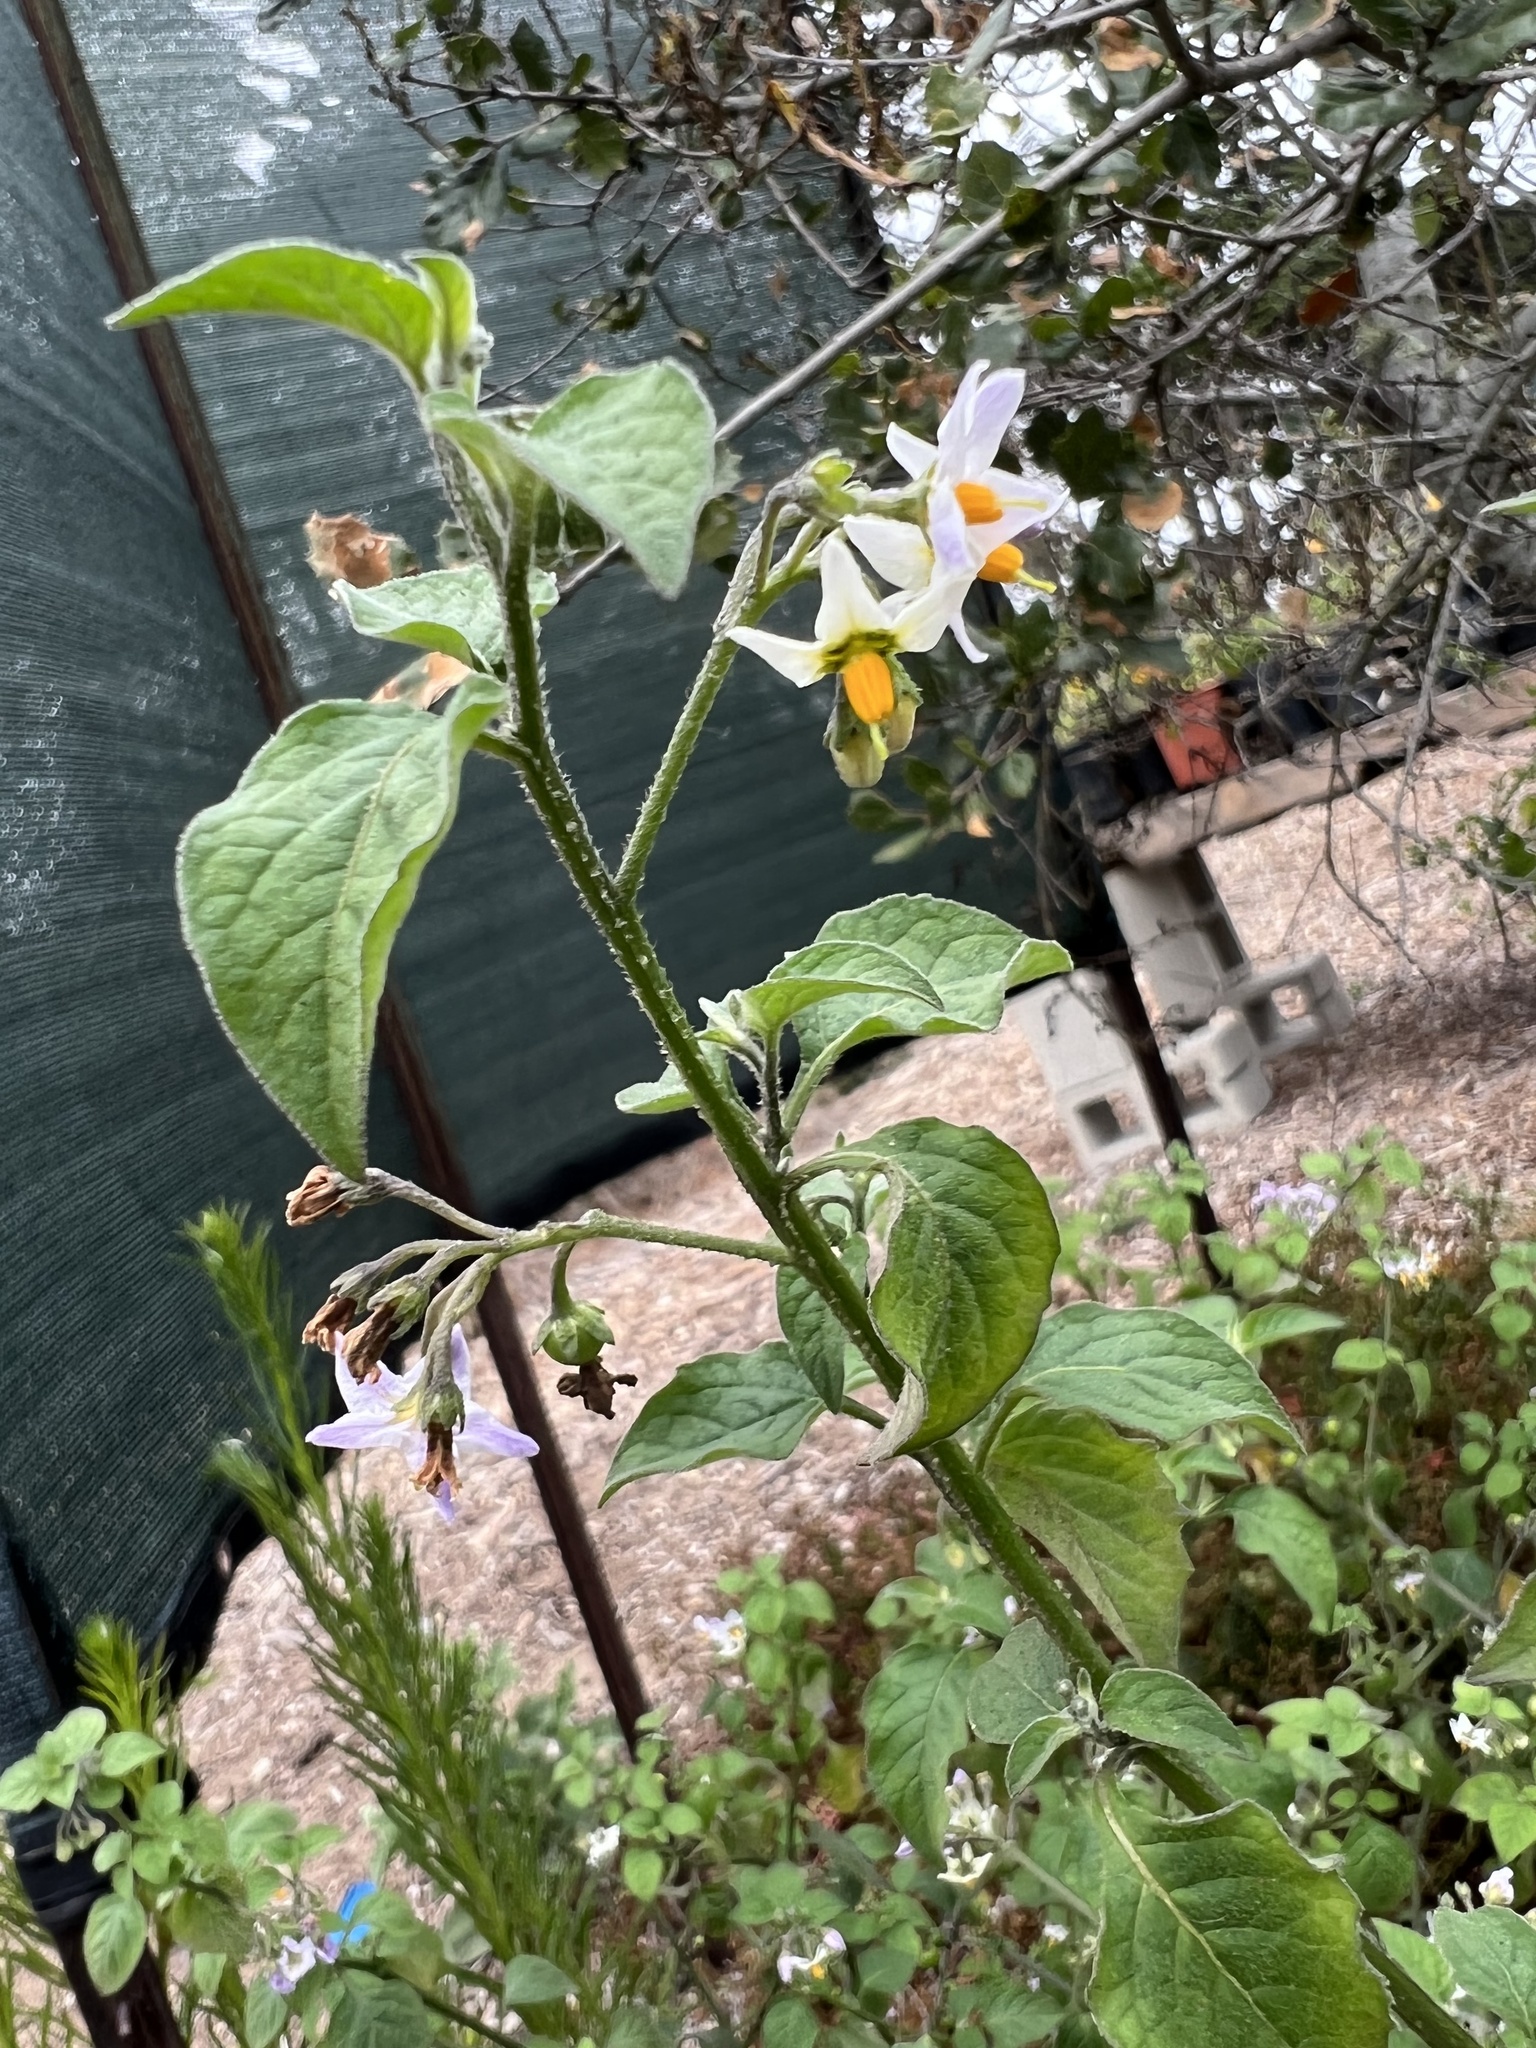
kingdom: Plantae
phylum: Tracheophyta
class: Magnoliopsida
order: Solanales
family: Solanaceae
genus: Solanum
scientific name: Solanum douglasii
